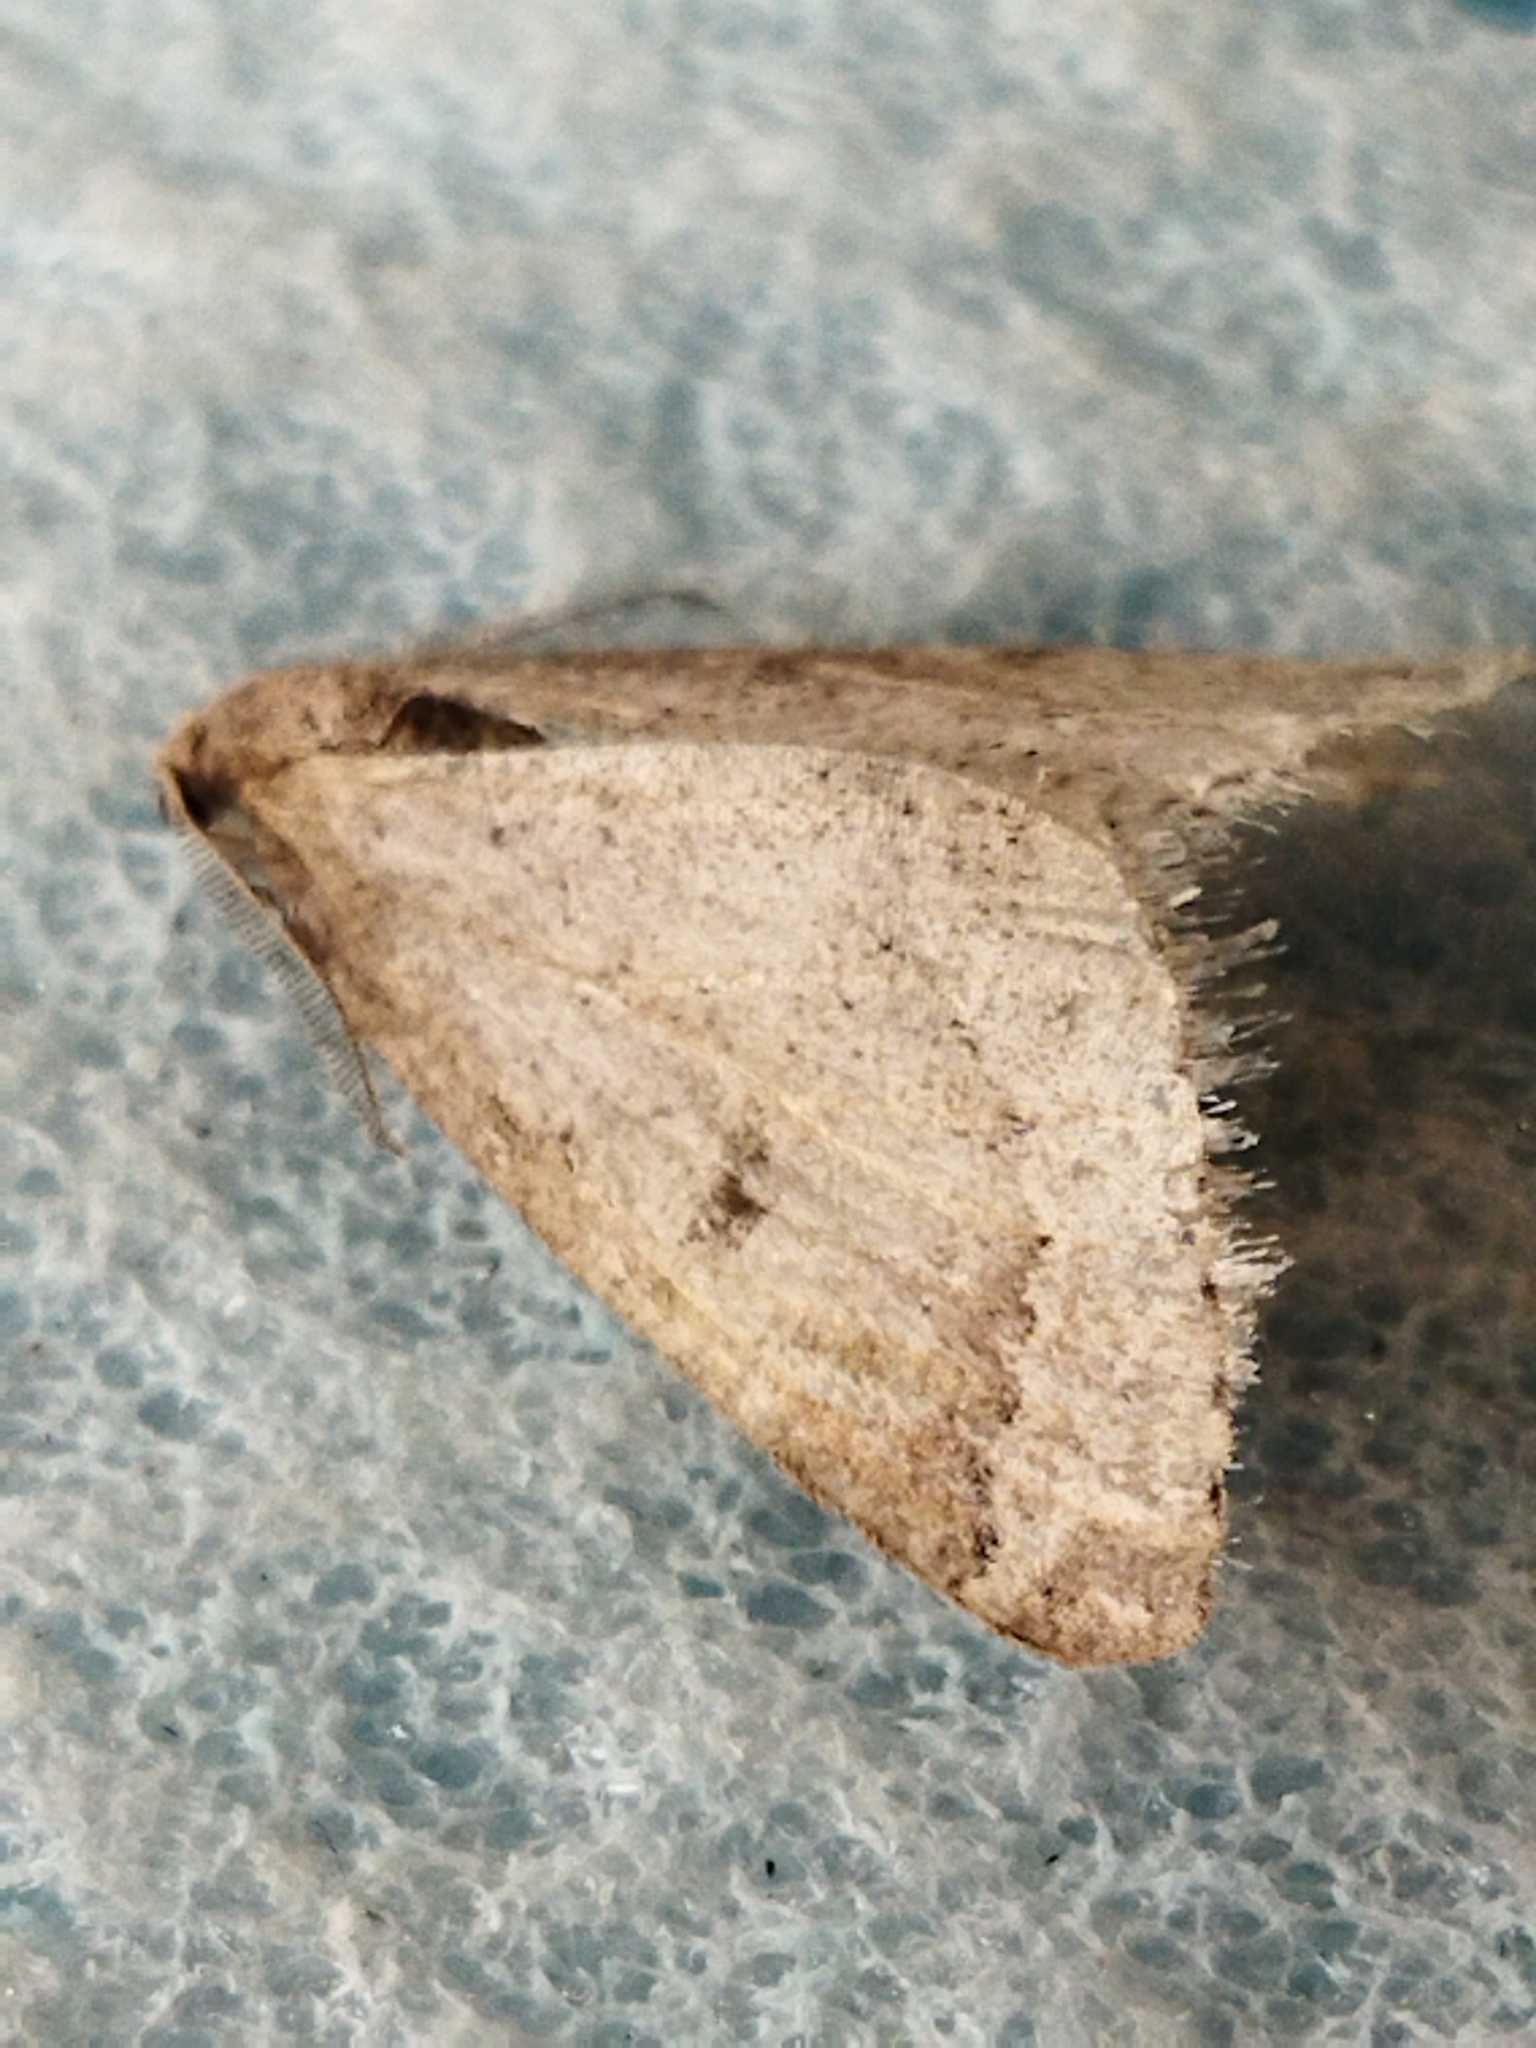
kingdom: Animalia
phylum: Arthropoda
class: Insecta
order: Lepidoptera
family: Geometridae
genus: Theria
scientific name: Theria rupicapraria
